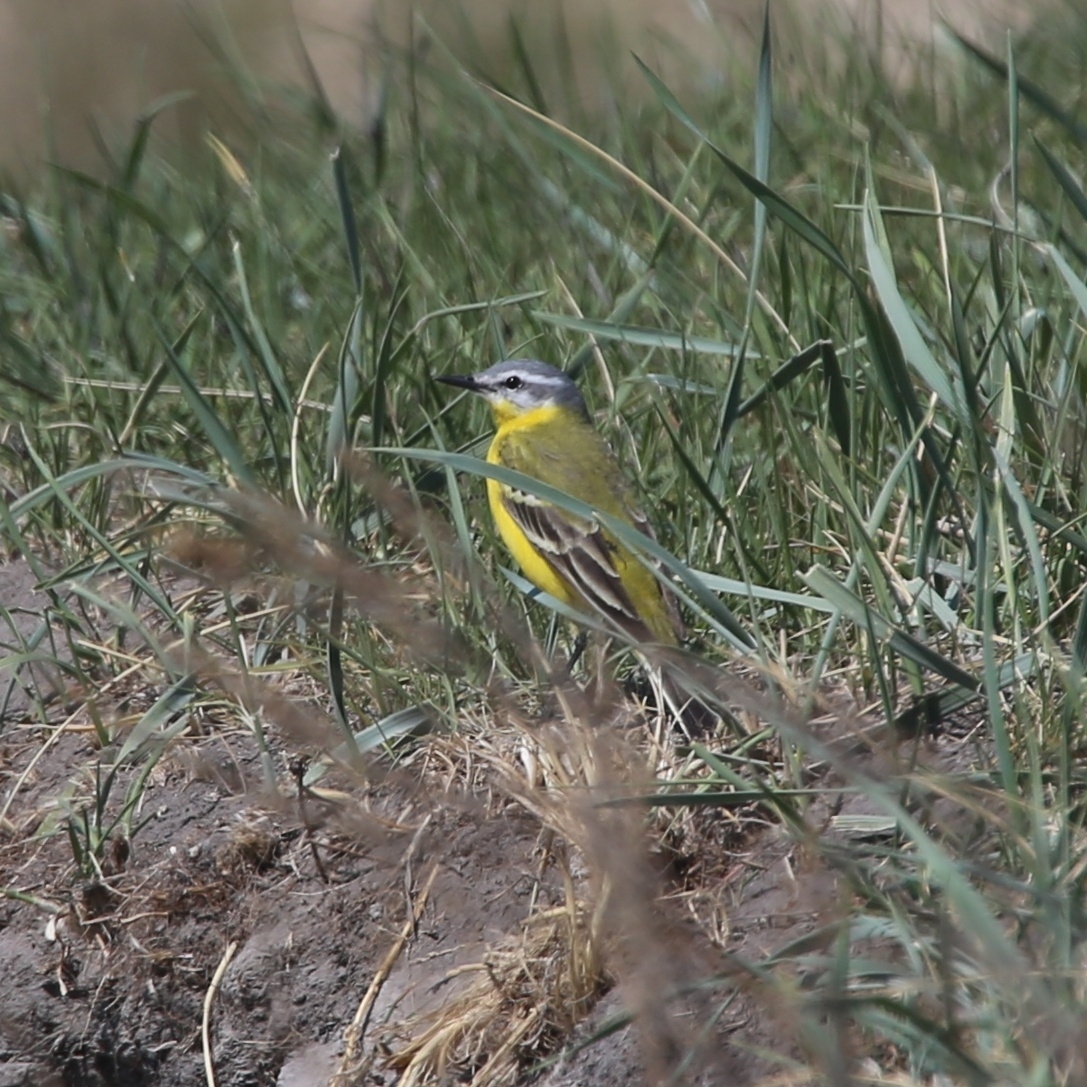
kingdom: Animalia
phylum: Chordata
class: Aves
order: Passeriformes
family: Motacillidae
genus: Motacilla
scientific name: Motacilla flava
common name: Western yellow wagtail
